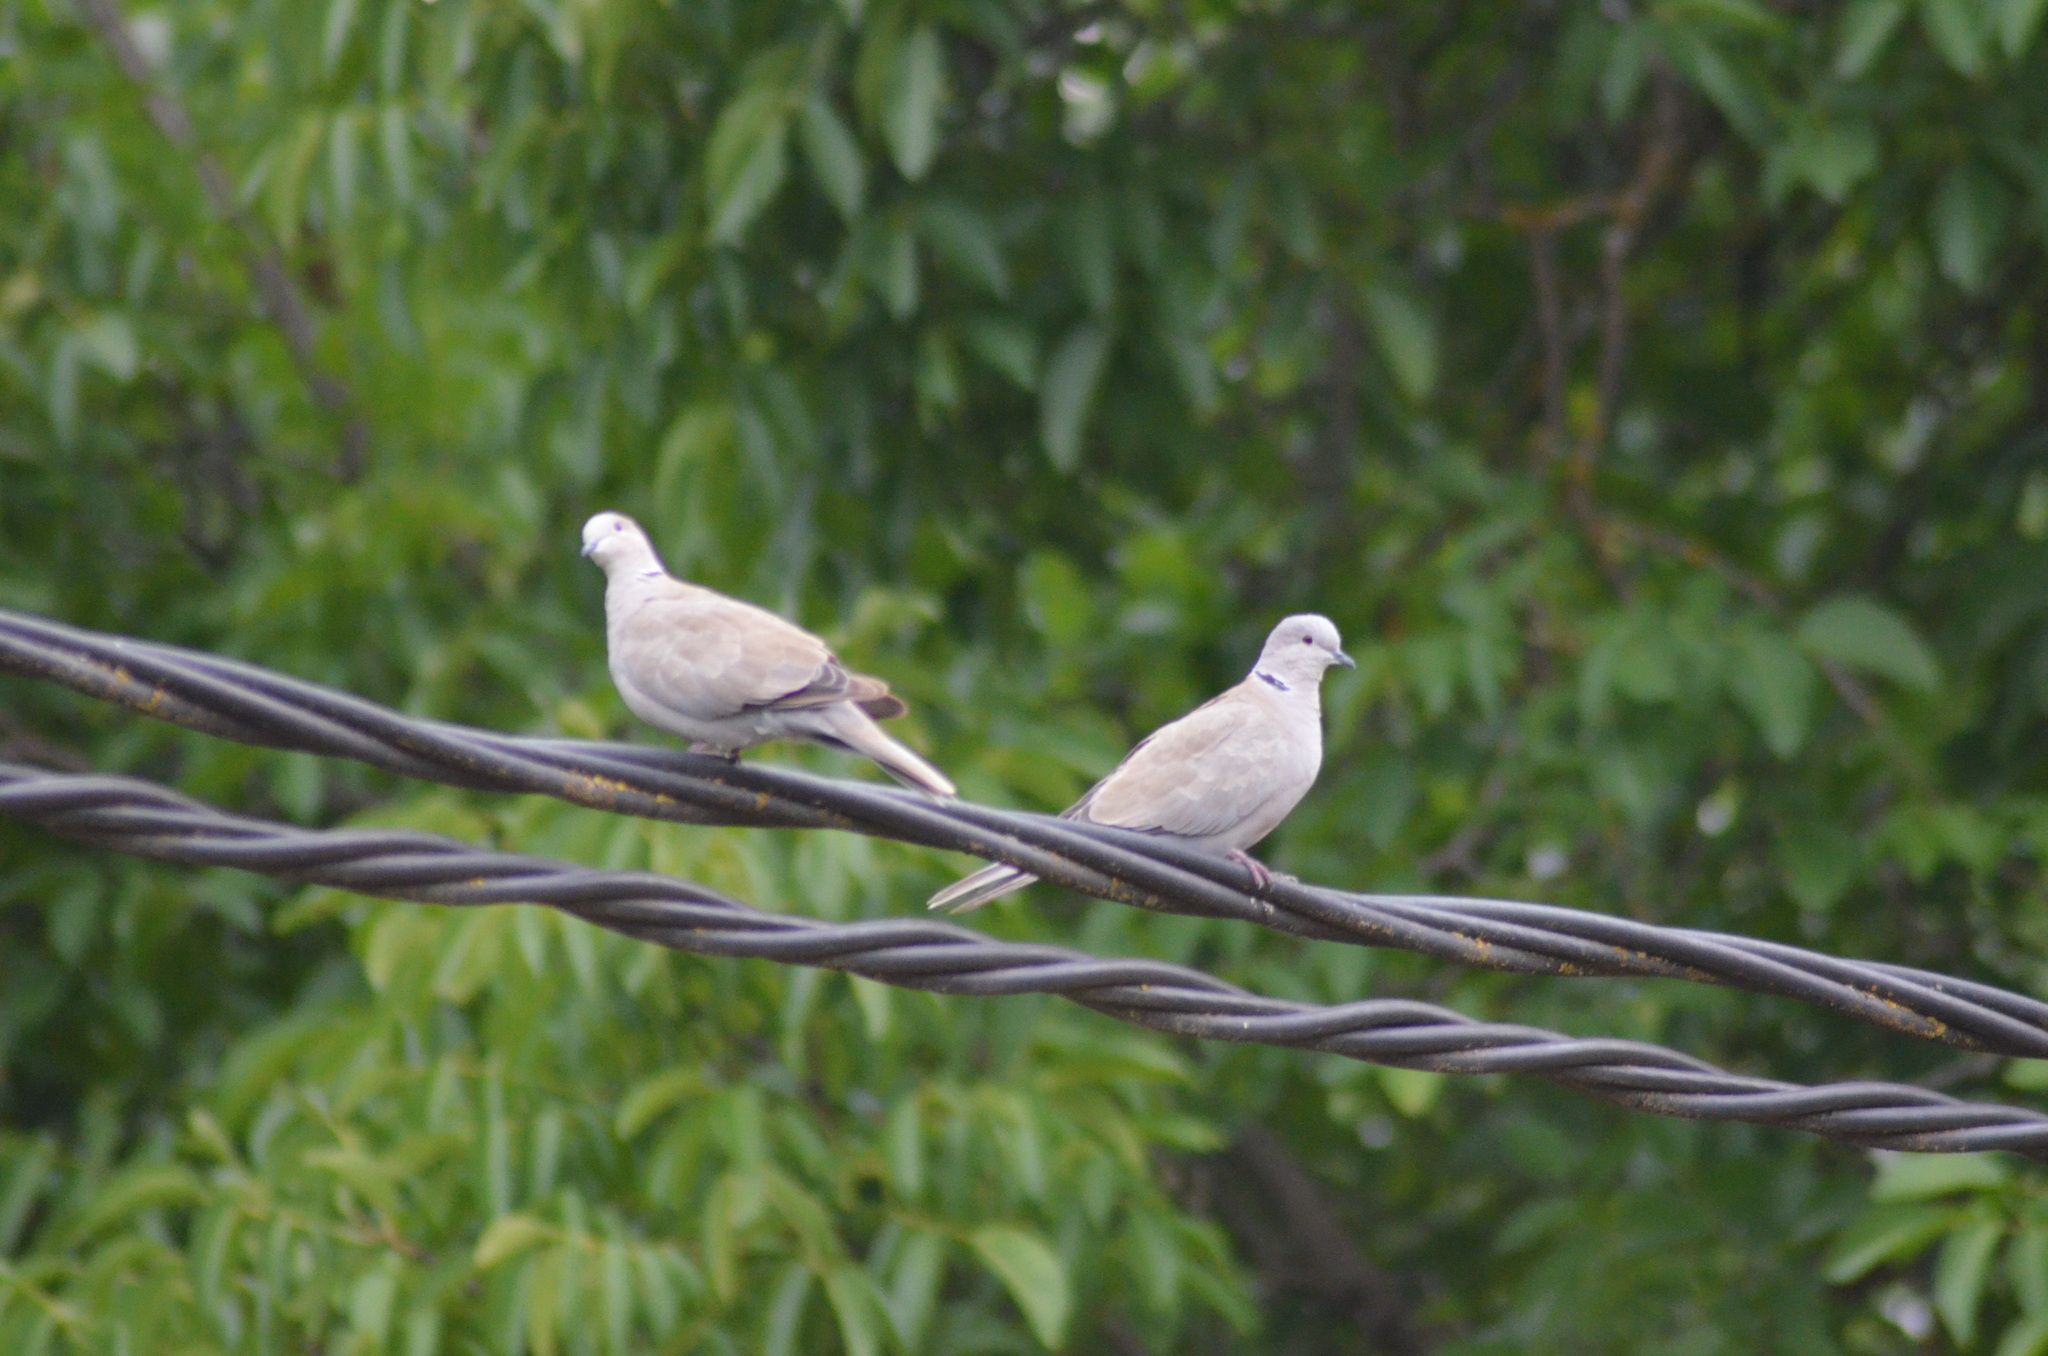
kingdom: Animalia
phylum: Chordata
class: Aves
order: Columbiformes
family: Columbidae
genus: Streptopelia
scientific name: Streptopelia decaocto
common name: Eurasian collared dove
